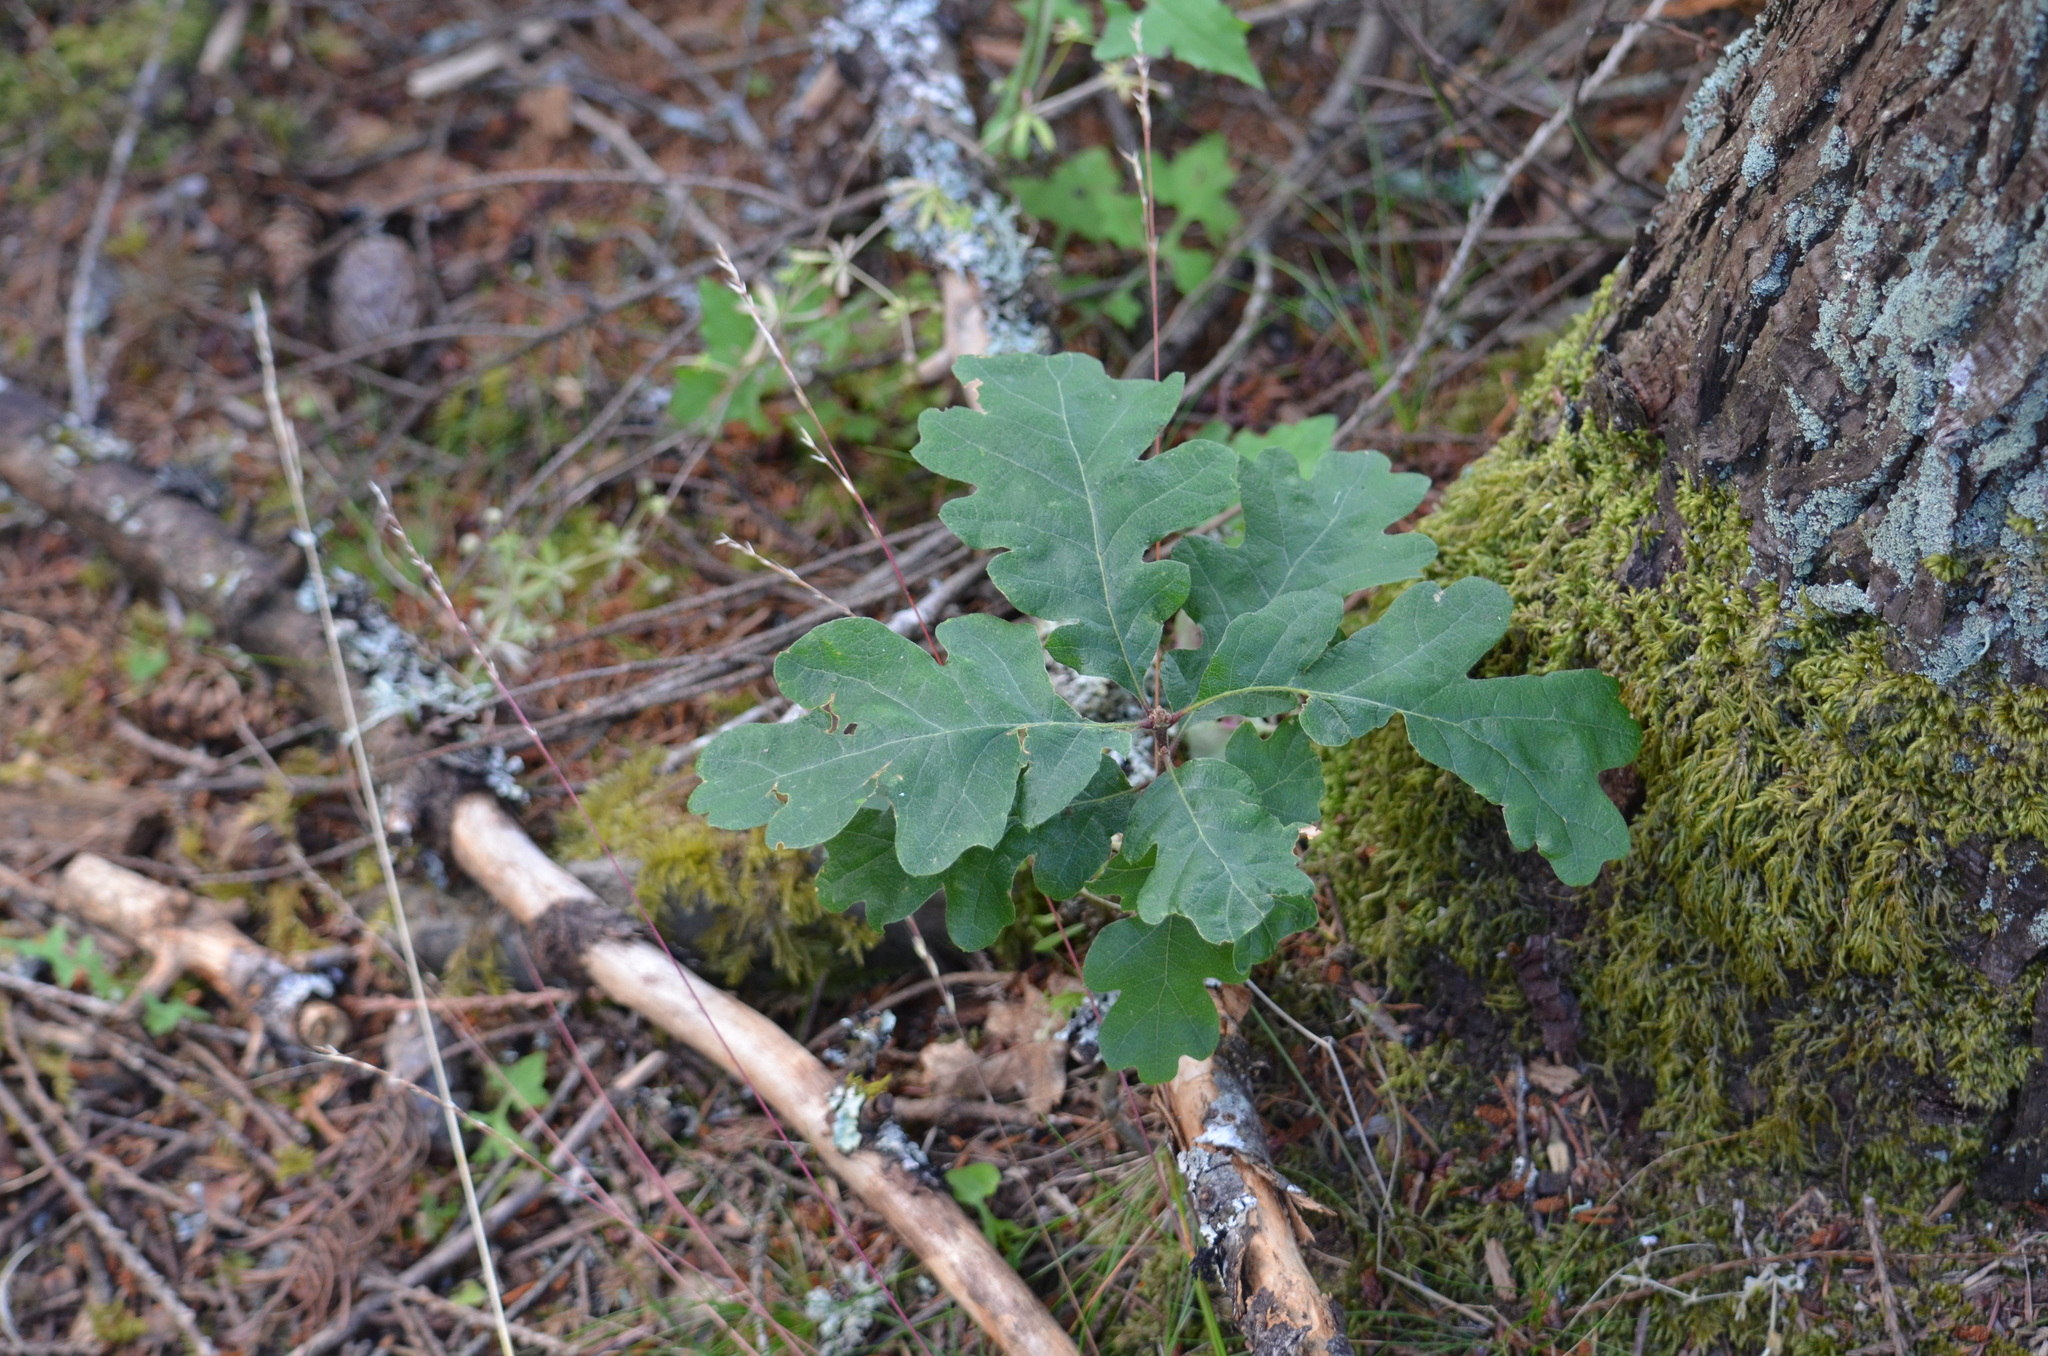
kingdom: Plantae
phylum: Tracheophyta
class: Magnoliopsida
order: Fagales
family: Fagaceae
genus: Quercus
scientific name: Quercus garryana
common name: Garry oak
